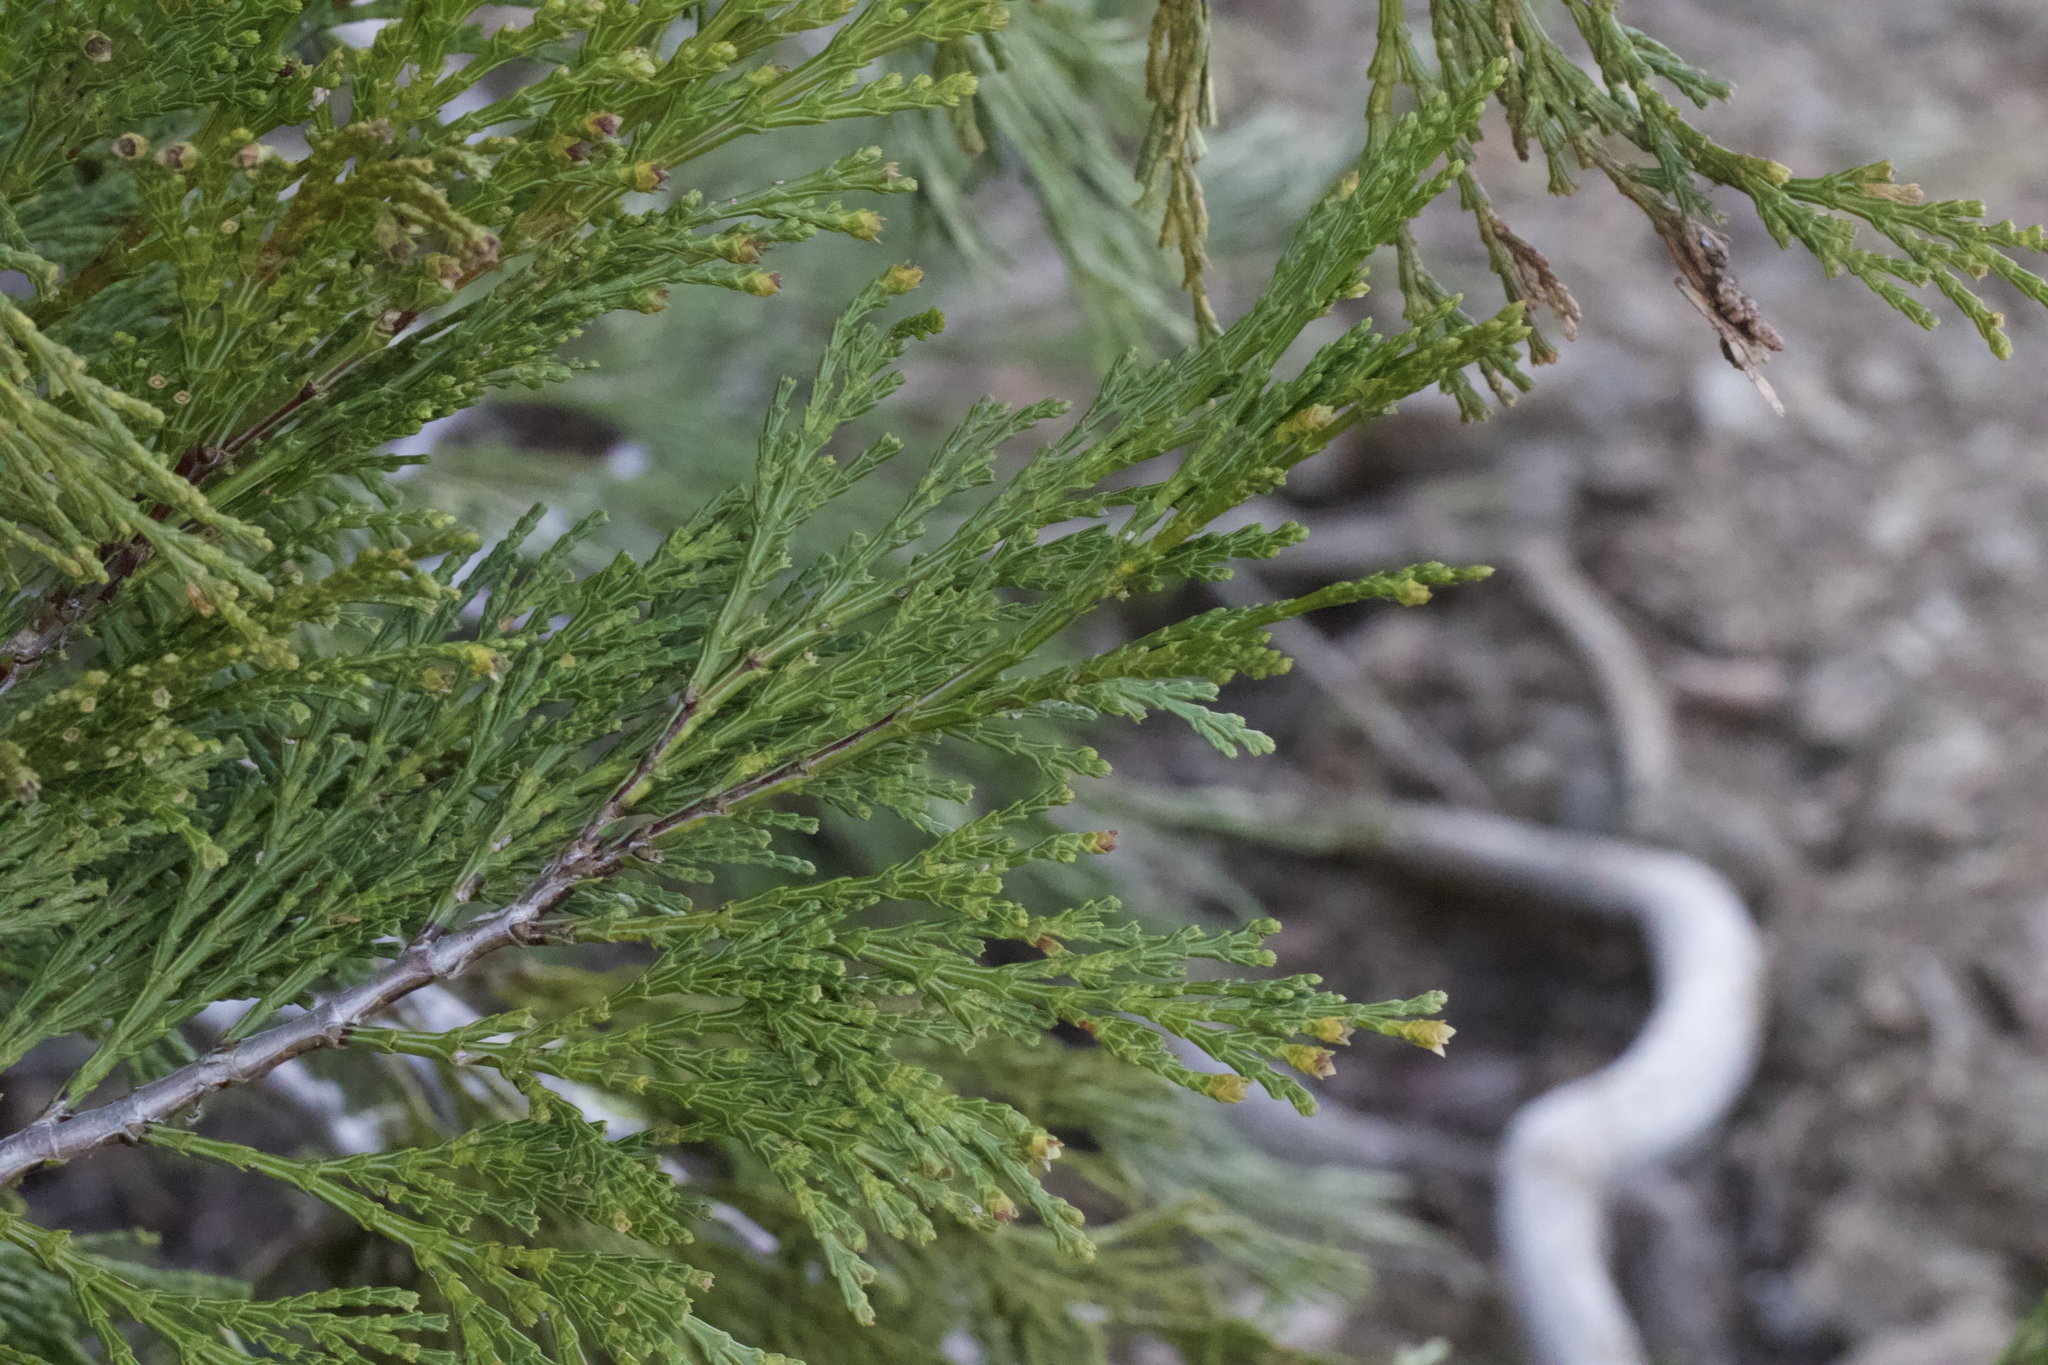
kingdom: Plantae
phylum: Tracheophyta
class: Pinopsida
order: Pinales
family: Cupressaceae
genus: Calocedrus
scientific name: Calocedrus decurrens
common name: Californian incense-cedar
